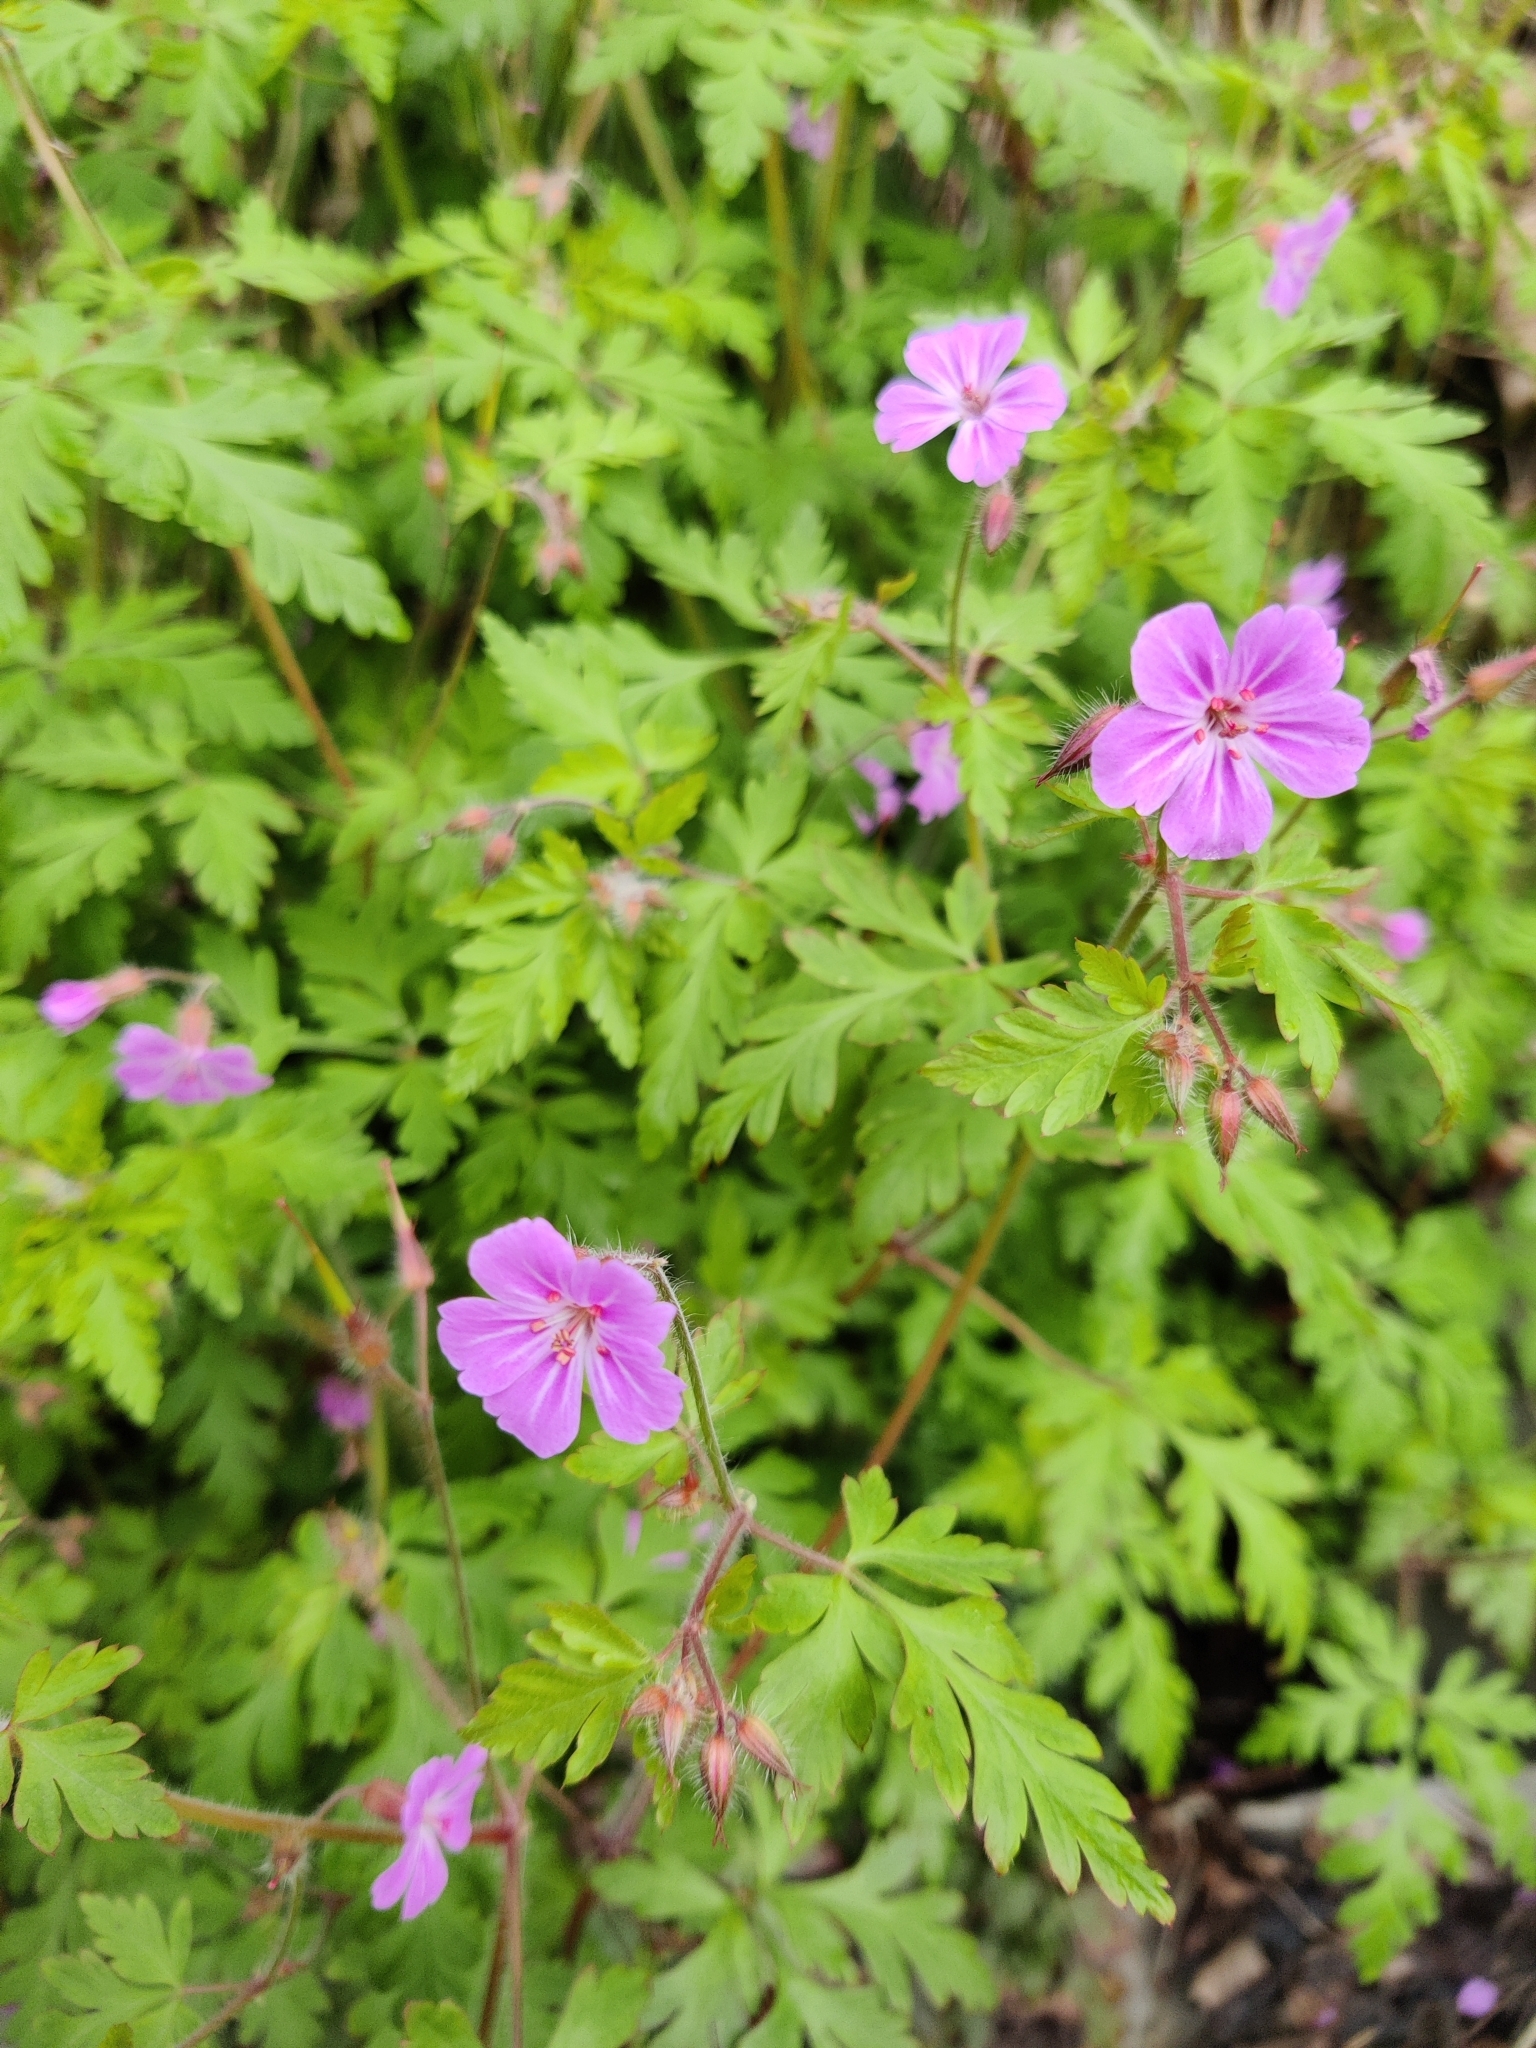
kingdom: Plantae
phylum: Tracheophyta
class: Magnoliopsida
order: Geraniales
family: Geraniaceae
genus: Geranium
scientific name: Geranium robertianum
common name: Herb-robert
